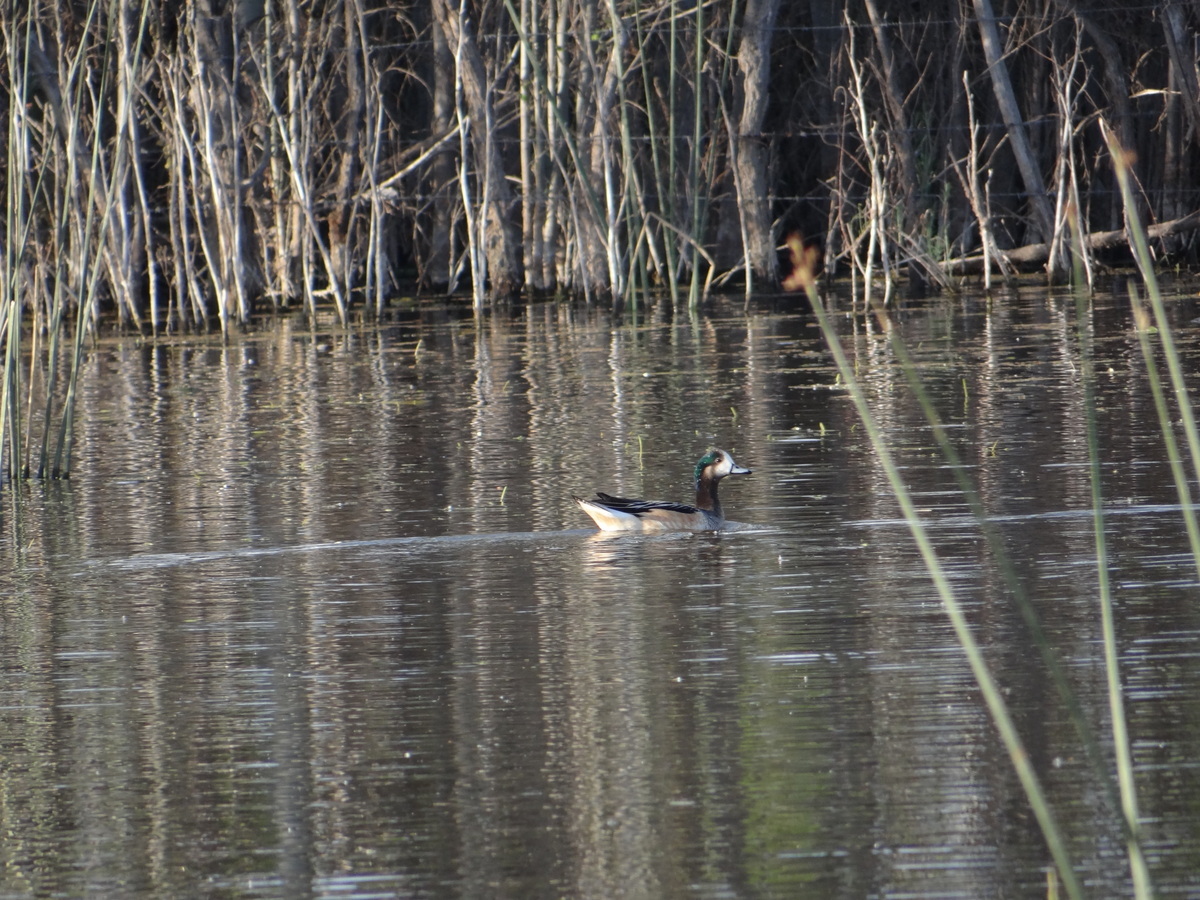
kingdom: Animalia
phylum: Chordata
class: Aves
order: Anseriformes
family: Anatidae
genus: Mareca
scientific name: Mareca sibilatrix
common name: Chiloe wigeon
